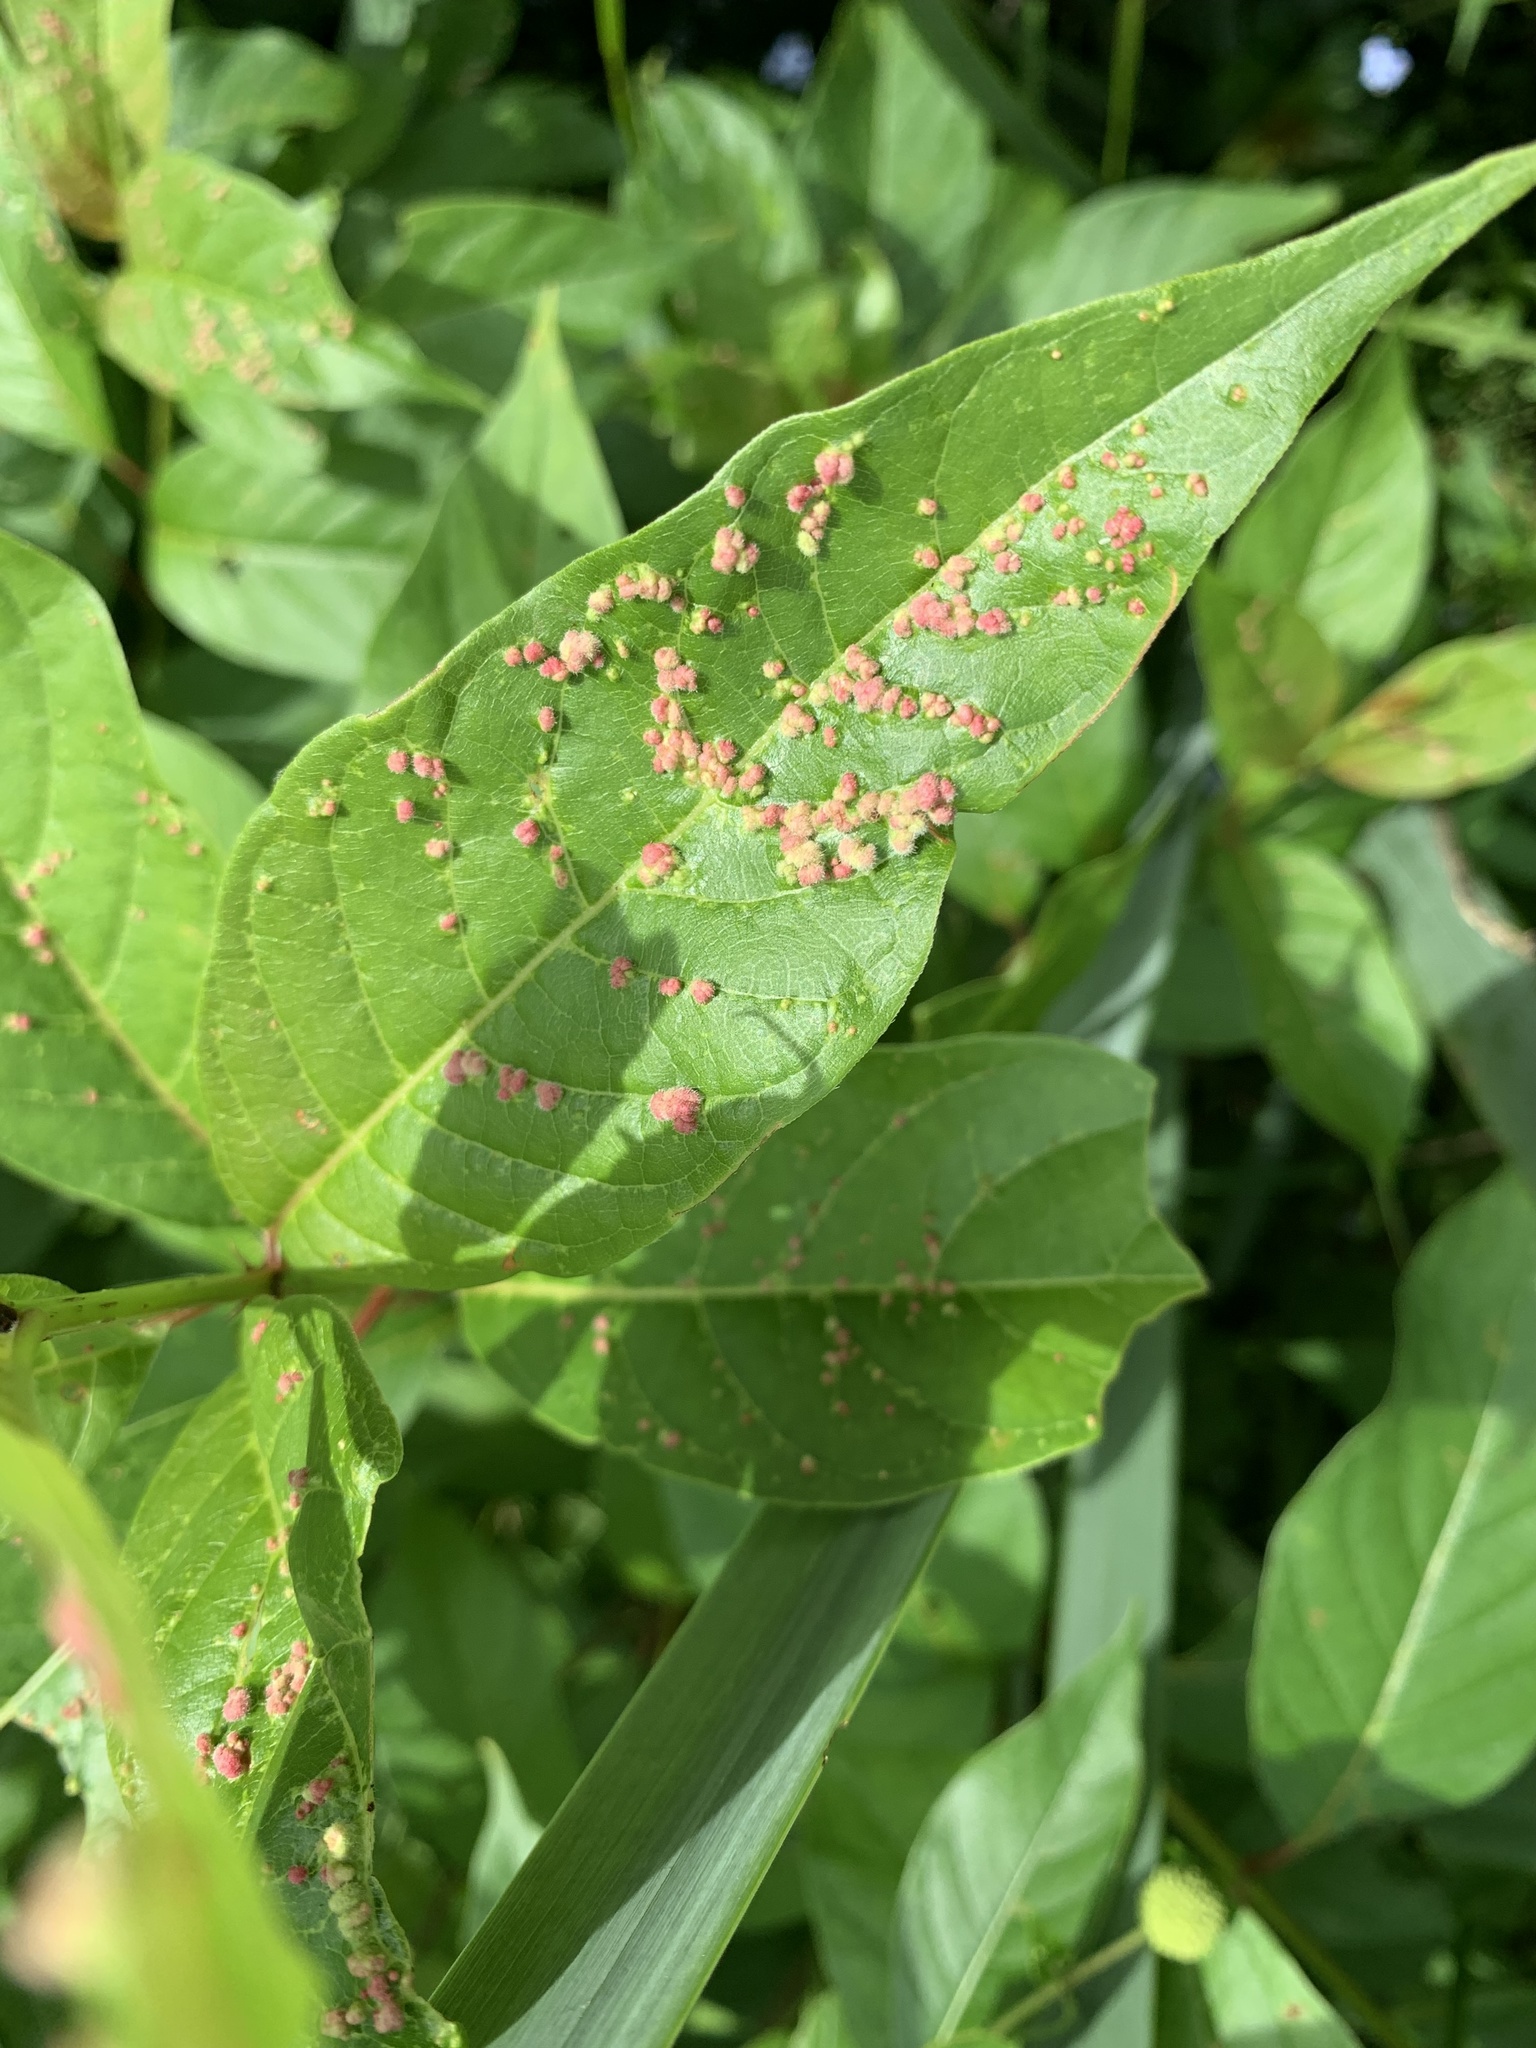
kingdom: Animalia
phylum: Arthropoda
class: Arachnida
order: Trombidiformes
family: Eriophyidae
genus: Aceria
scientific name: Aceria
